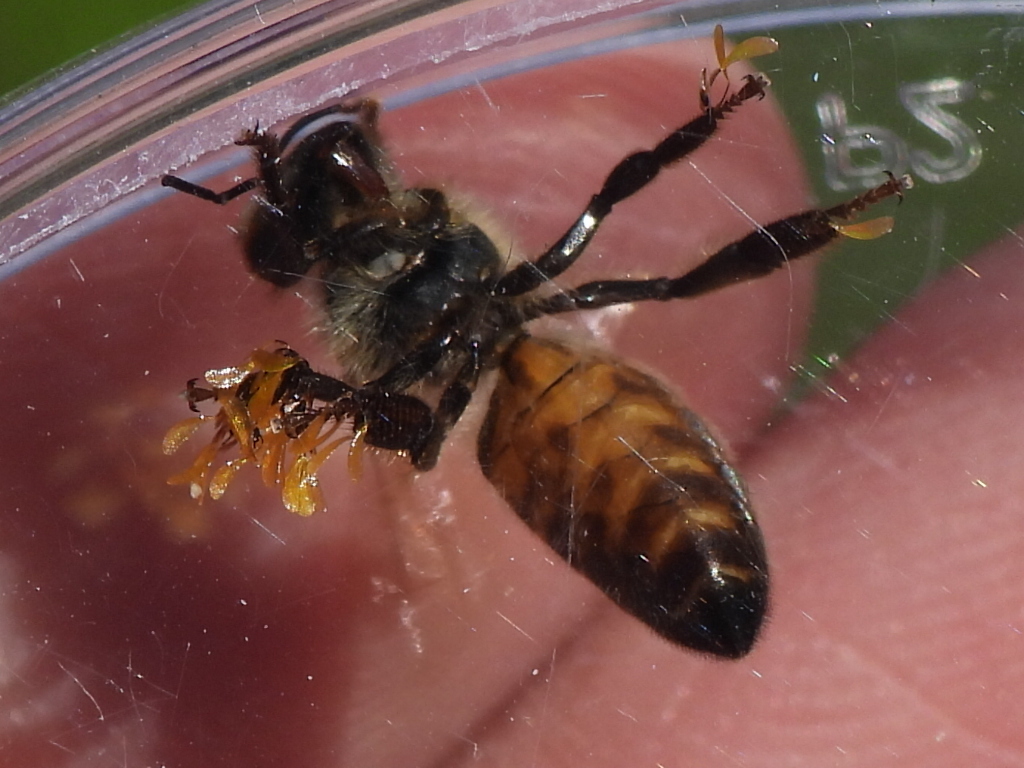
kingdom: Animalia
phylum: Arthropoda
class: Insecta
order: Hymenoptera
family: Apidae
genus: Apis
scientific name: Apis mellifera
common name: Honey bee
